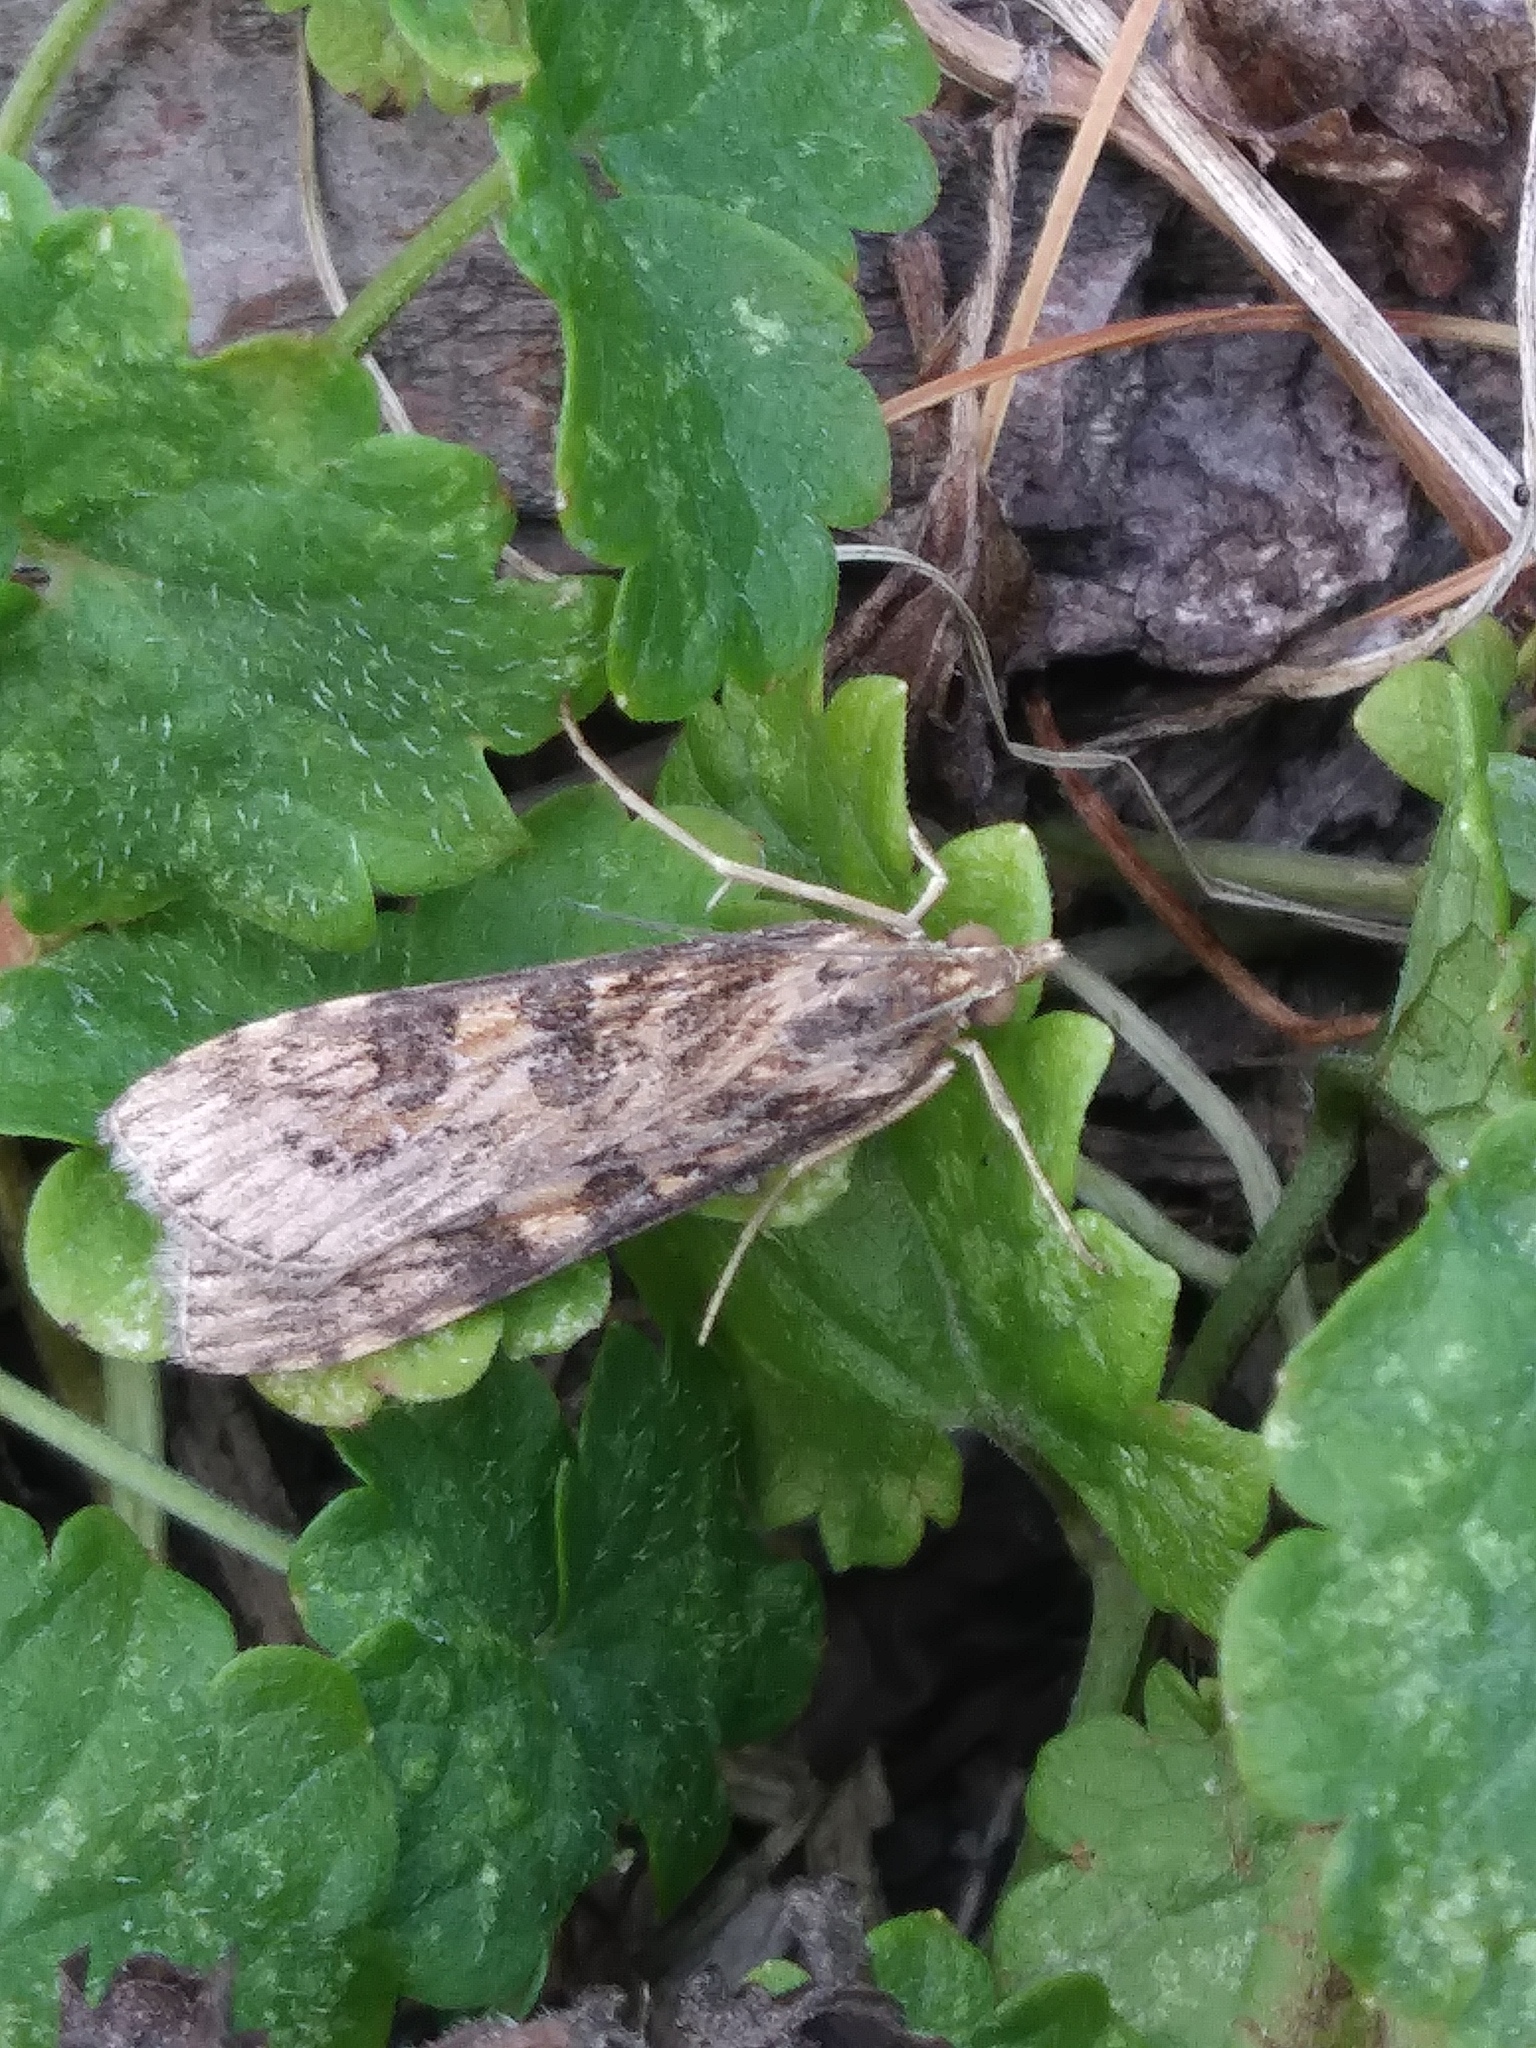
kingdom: Animalia
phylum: Arthropoda
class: Insecta
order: Lepidoptera
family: Crambidae
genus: Nomophila
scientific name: Nomophila nearctica
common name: American rush veneer
